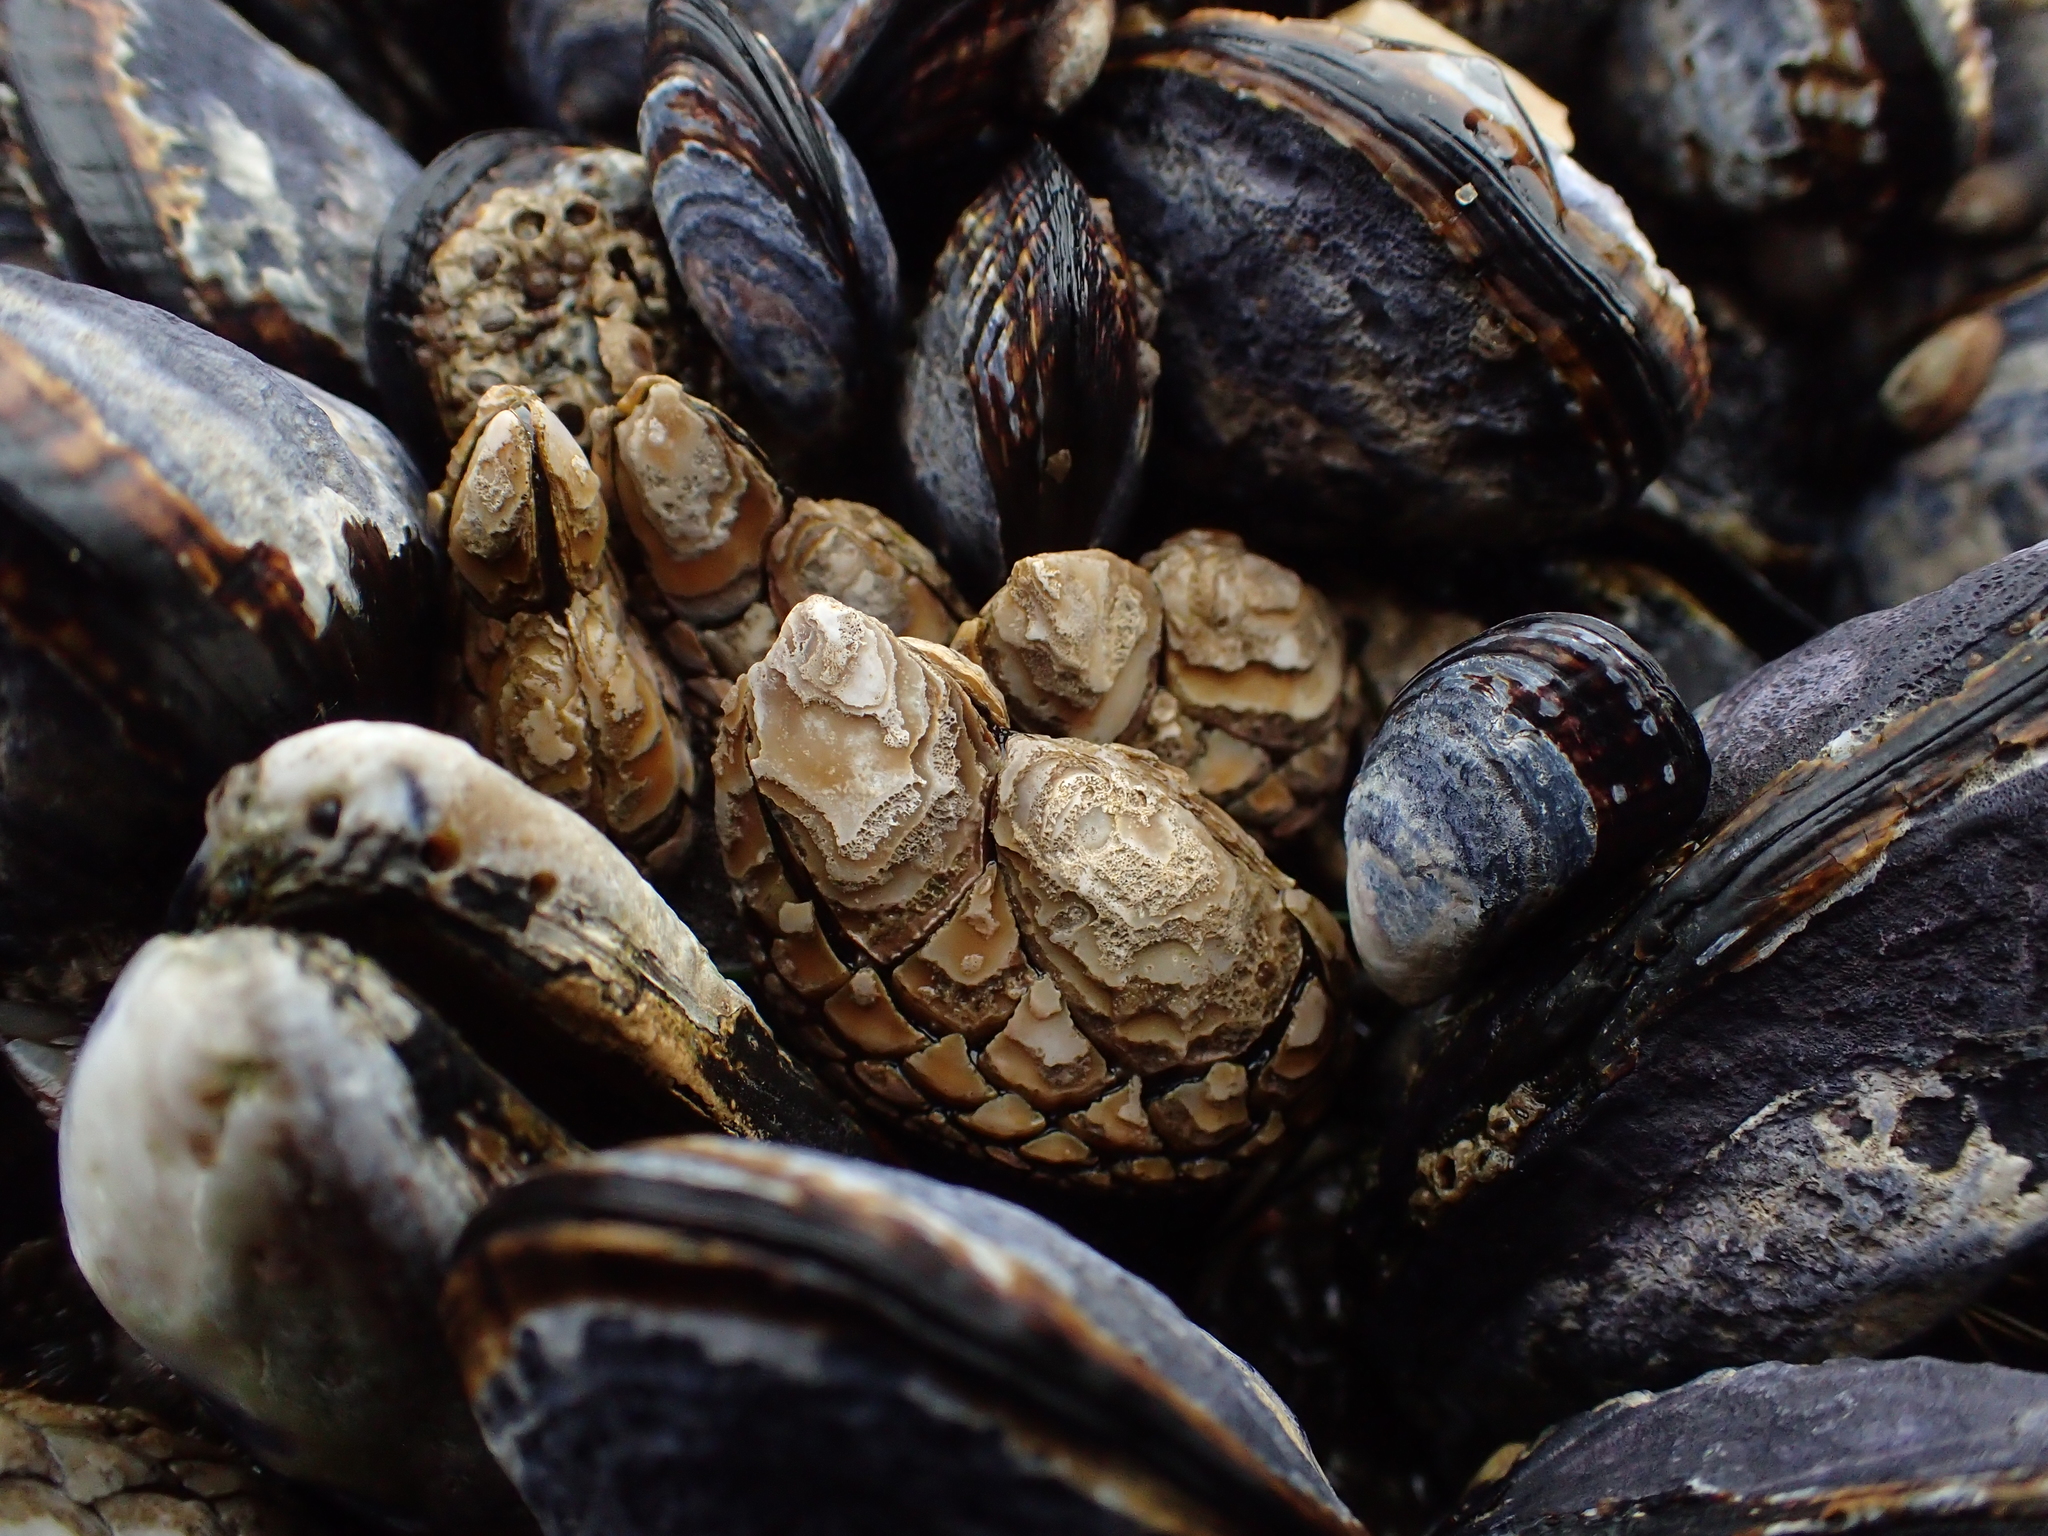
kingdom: Animalia
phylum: Arthropoda
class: Maxillopoda
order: Pedunculata
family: Pollicipedidae
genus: Pollicipes
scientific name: Pollicipes polymerus
